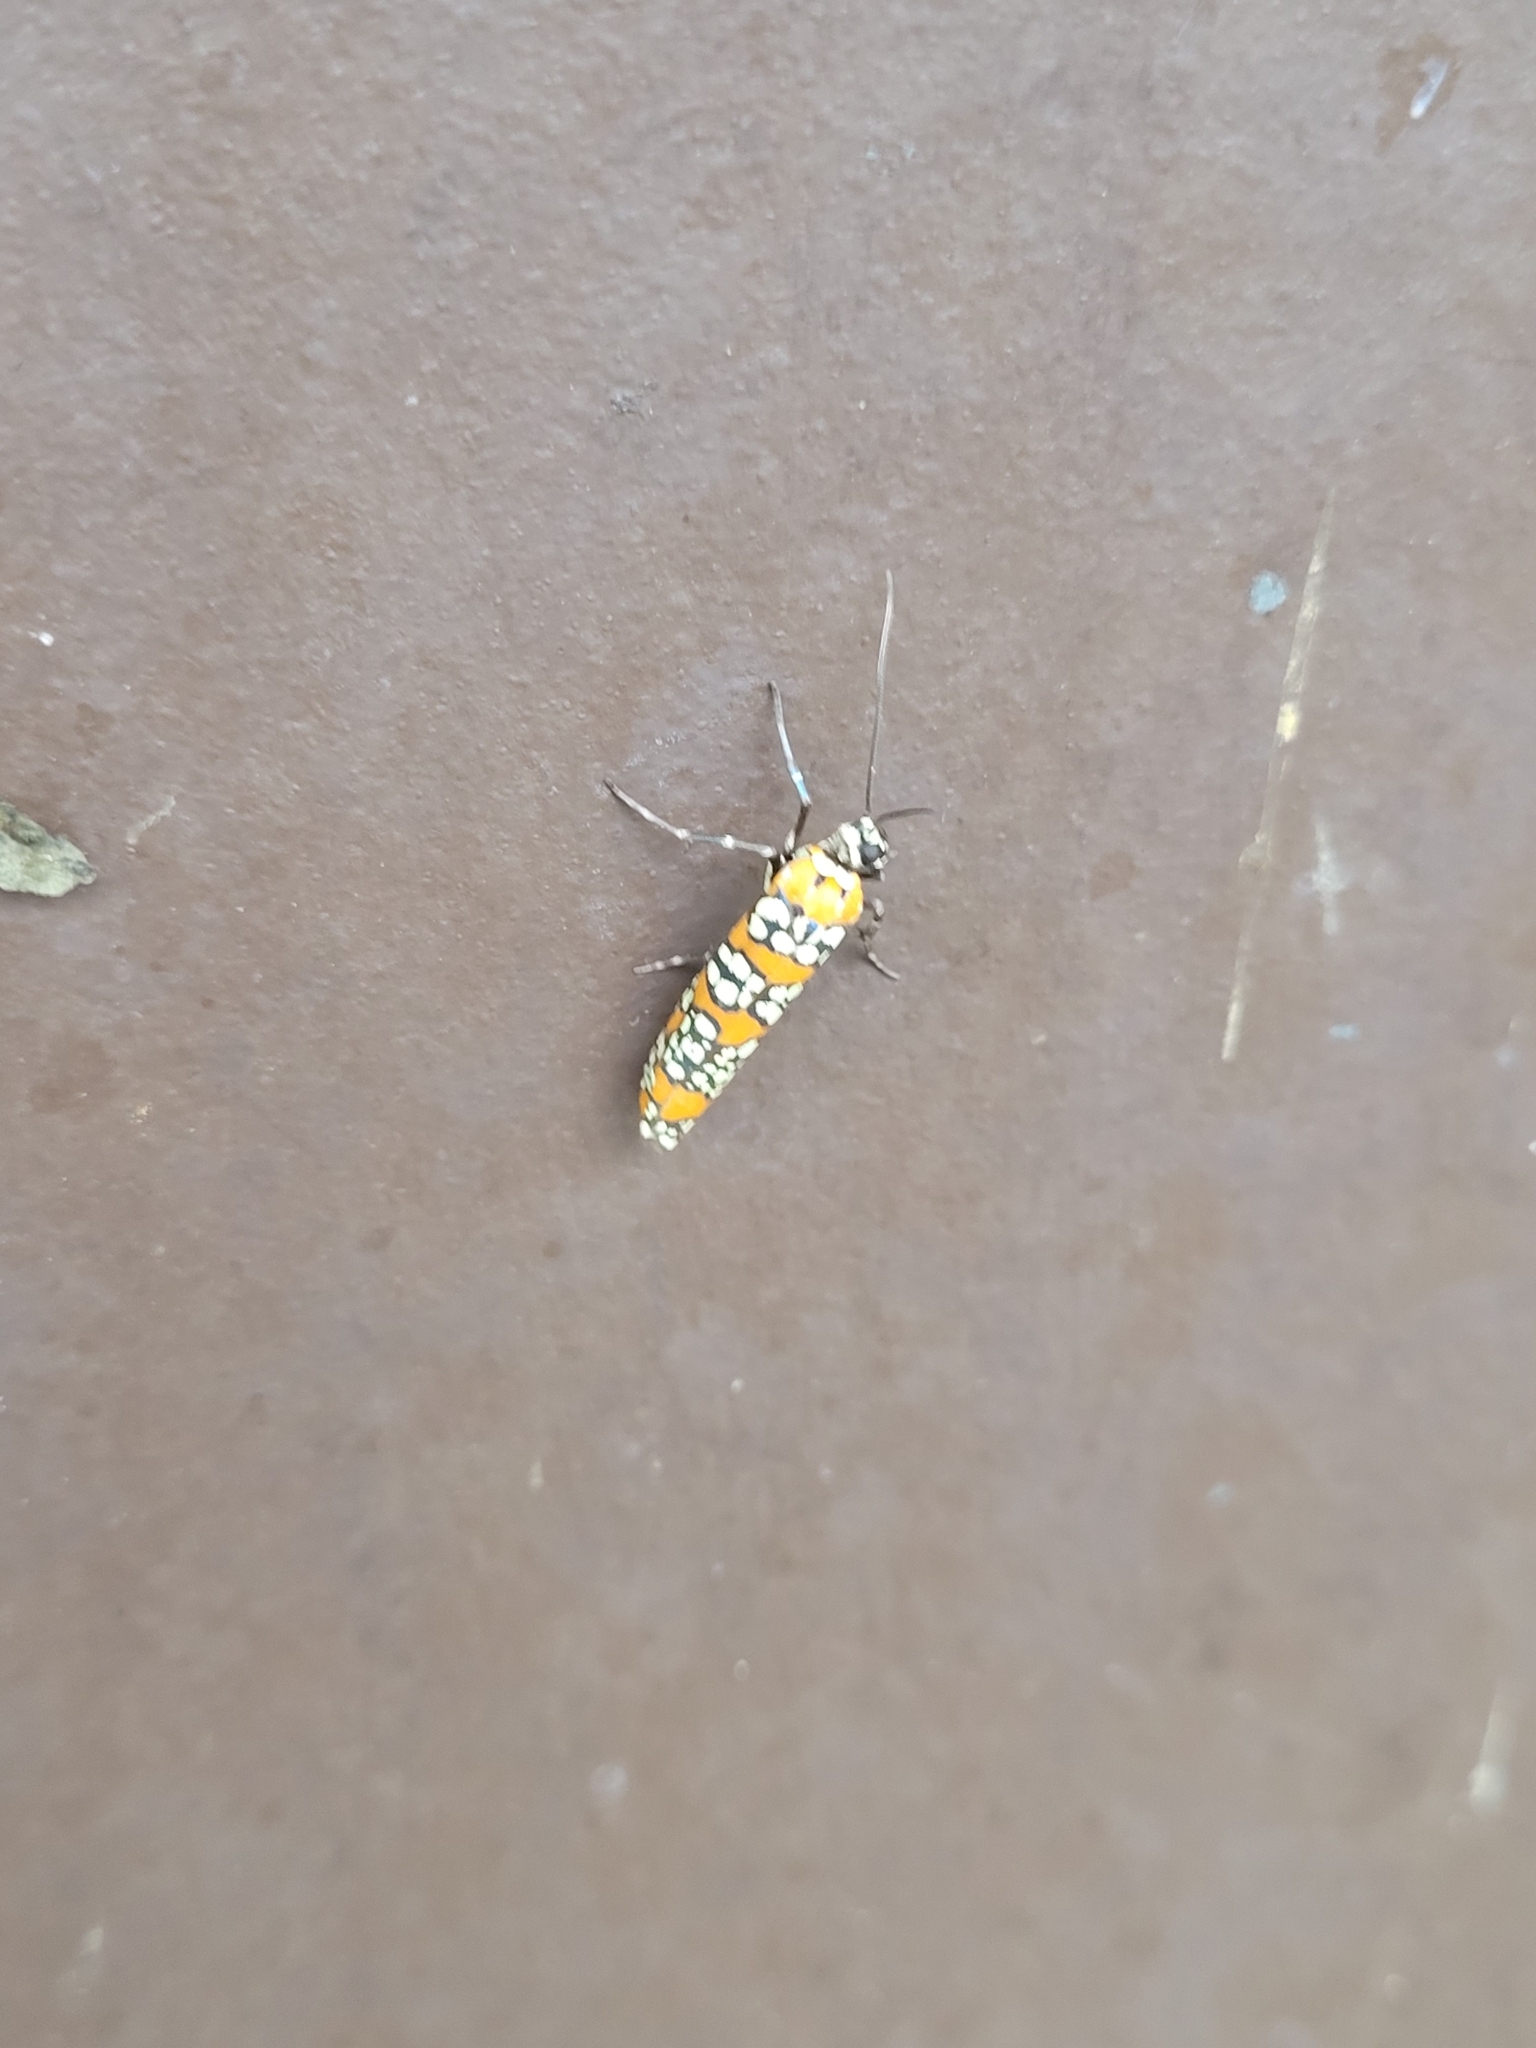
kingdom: Animalia
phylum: Arthropoda
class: Insecta
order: Lepidoptera
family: Attevidae
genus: Atteva
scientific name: Atteva punctella
